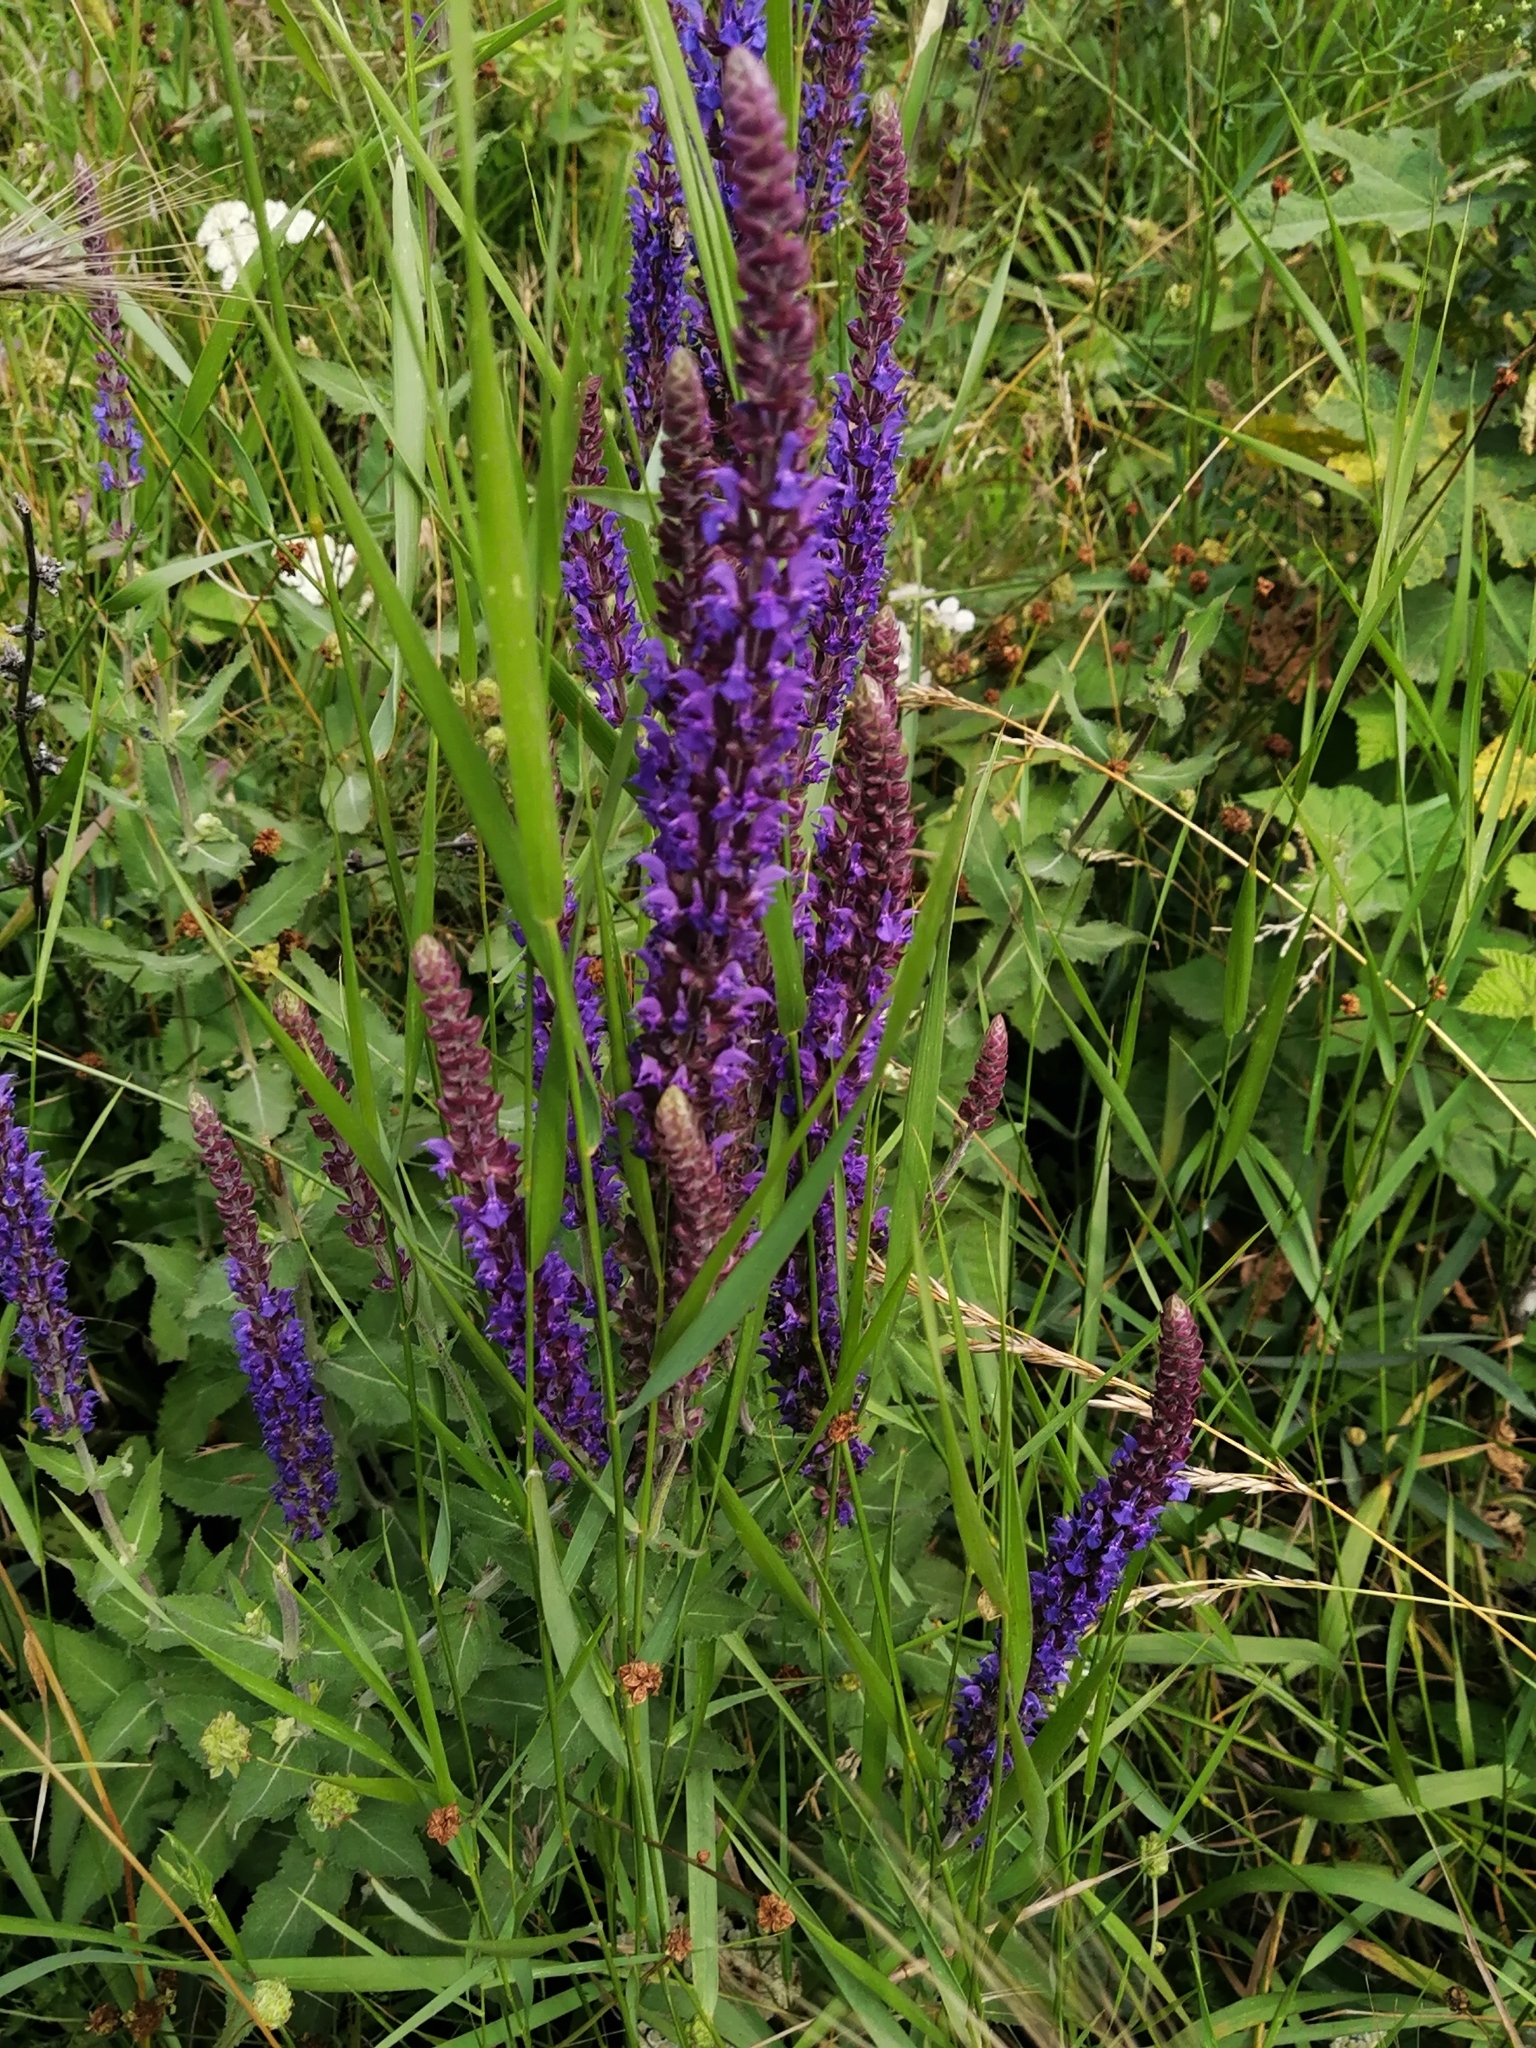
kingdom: Plantae
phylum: Tracheophyta
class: Magnoliopsida
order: Lamiales
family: Lamiaceae
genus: Salvia
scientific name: Salvia nemorosa
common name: Balkan clary
